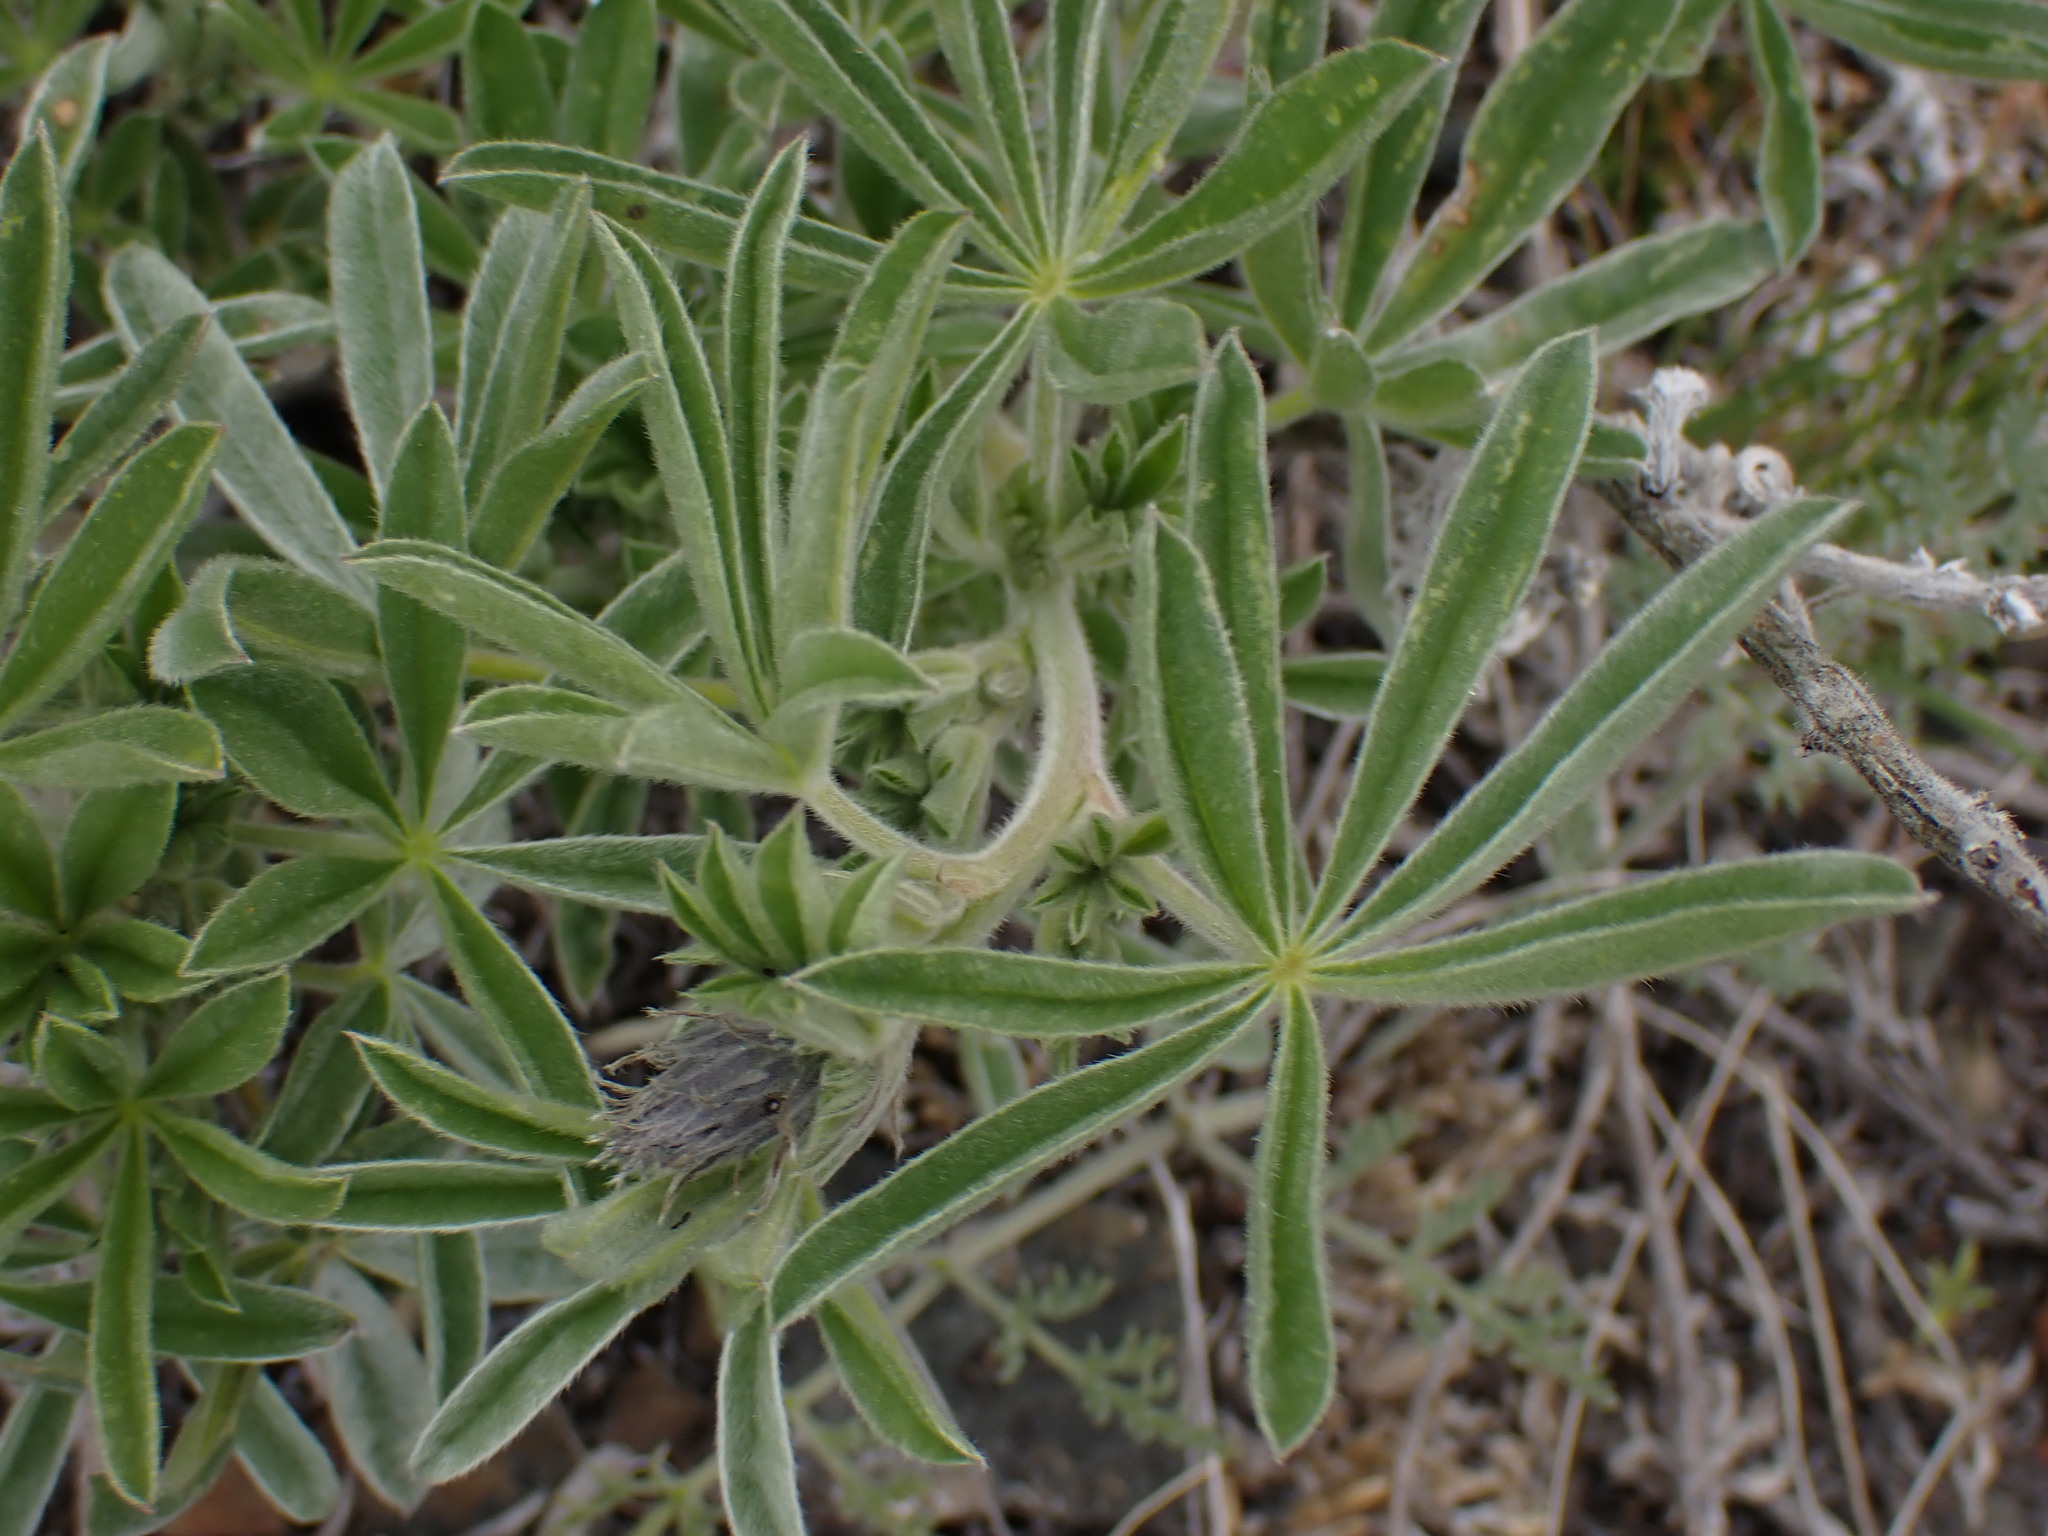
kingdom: Plantae
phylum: Tracheophyta
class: Magnoliopsida
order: Fabales
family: Fabaceae
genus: Lupinus
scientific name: Lupinus sericeus
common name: Silky lupine
